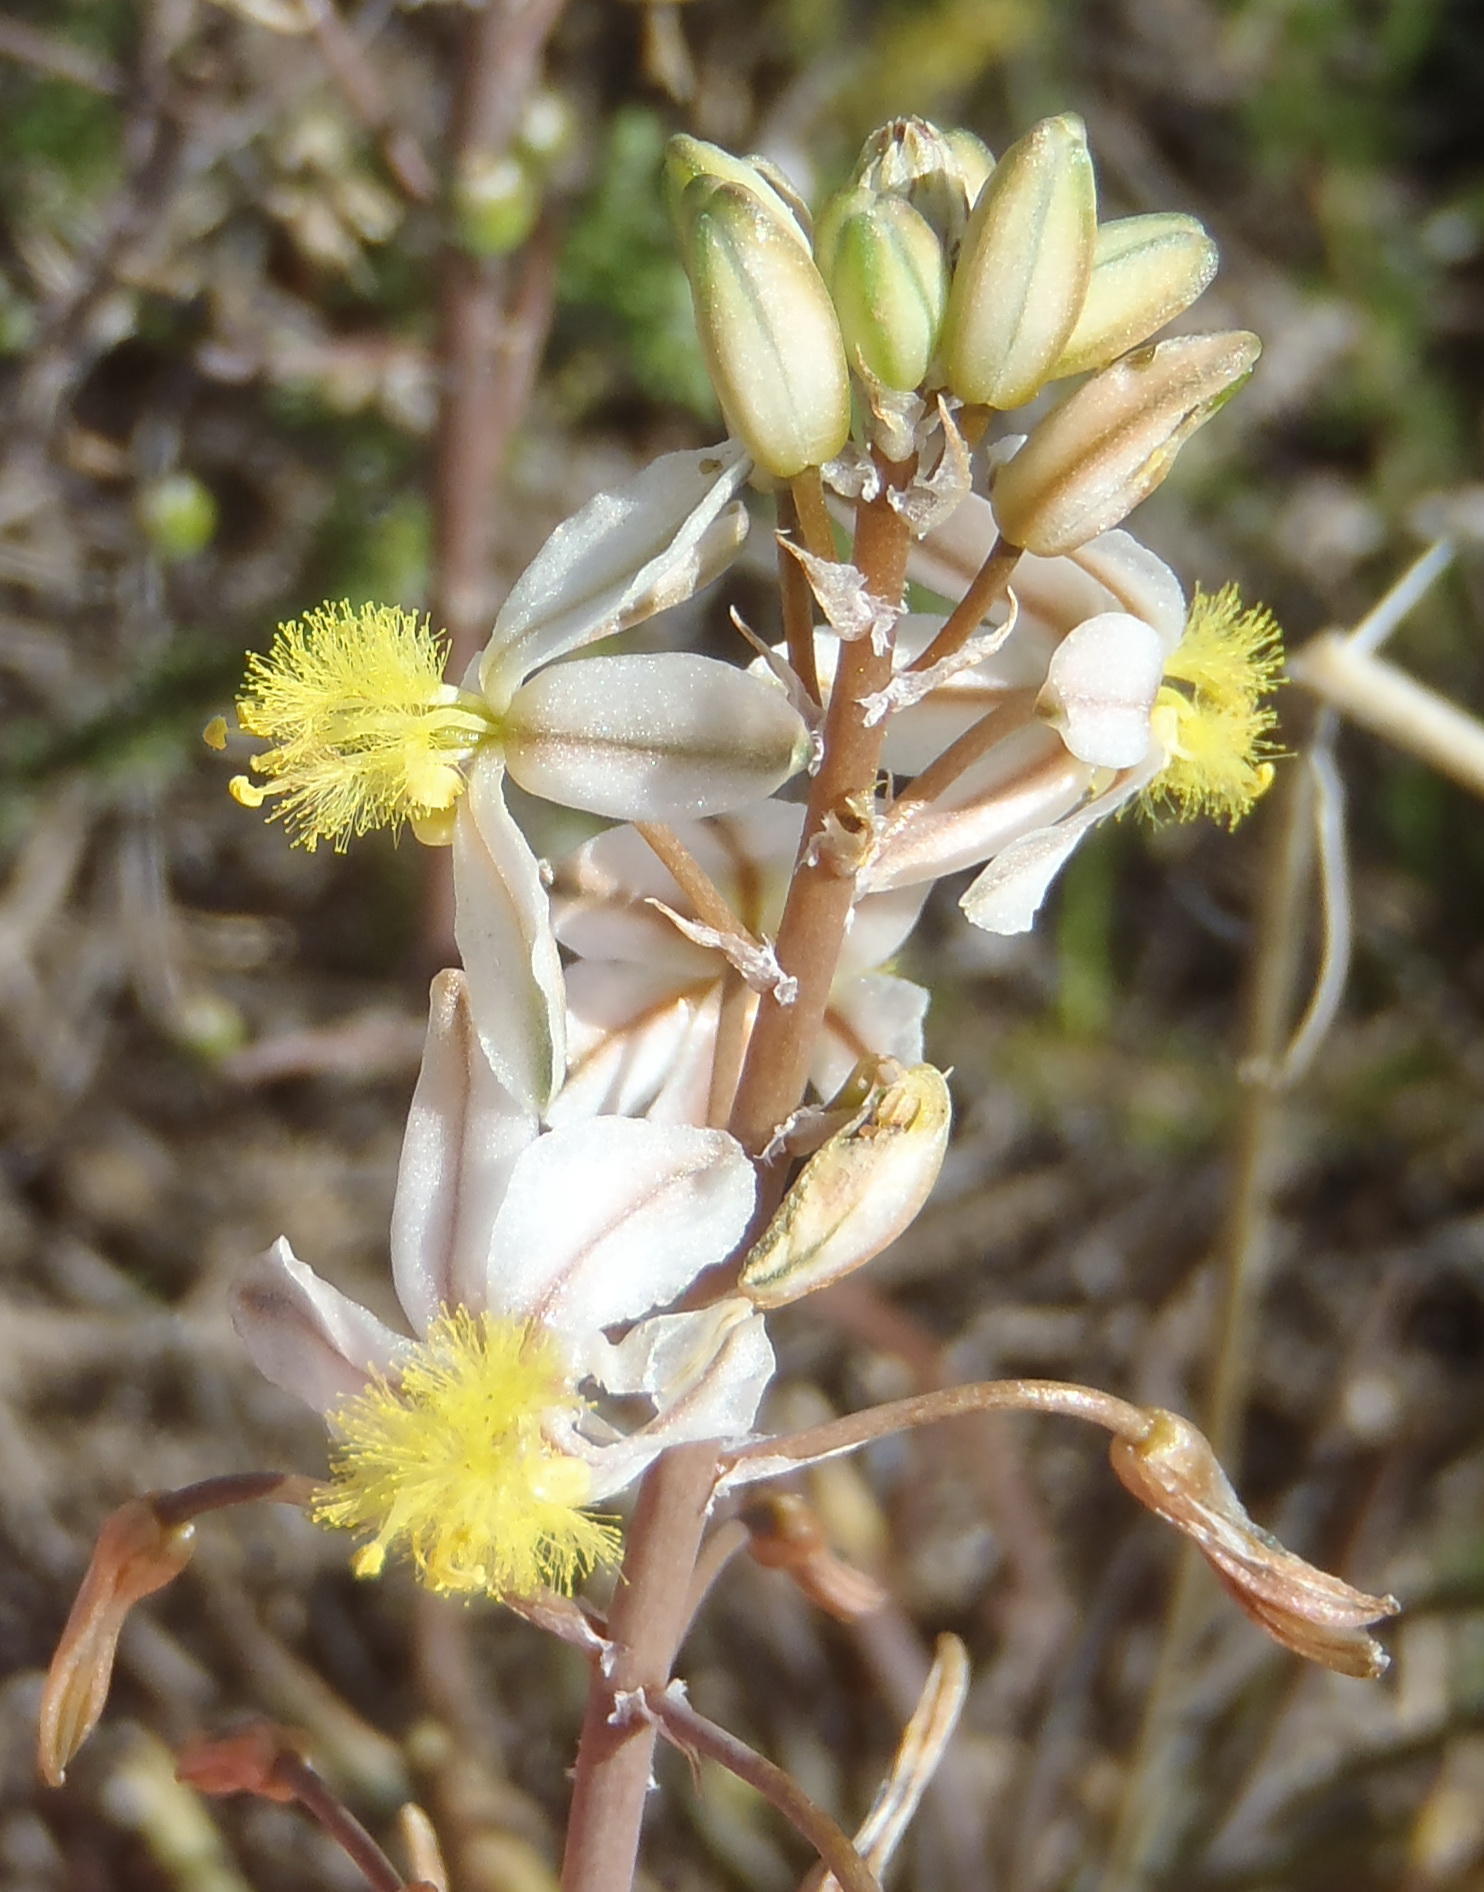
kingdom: Plantae
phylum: Tracheophyta
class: Liliopsida
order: Asparagales
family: Asphodelaceae
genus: Bulbine
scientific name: Bulbine frutescens
